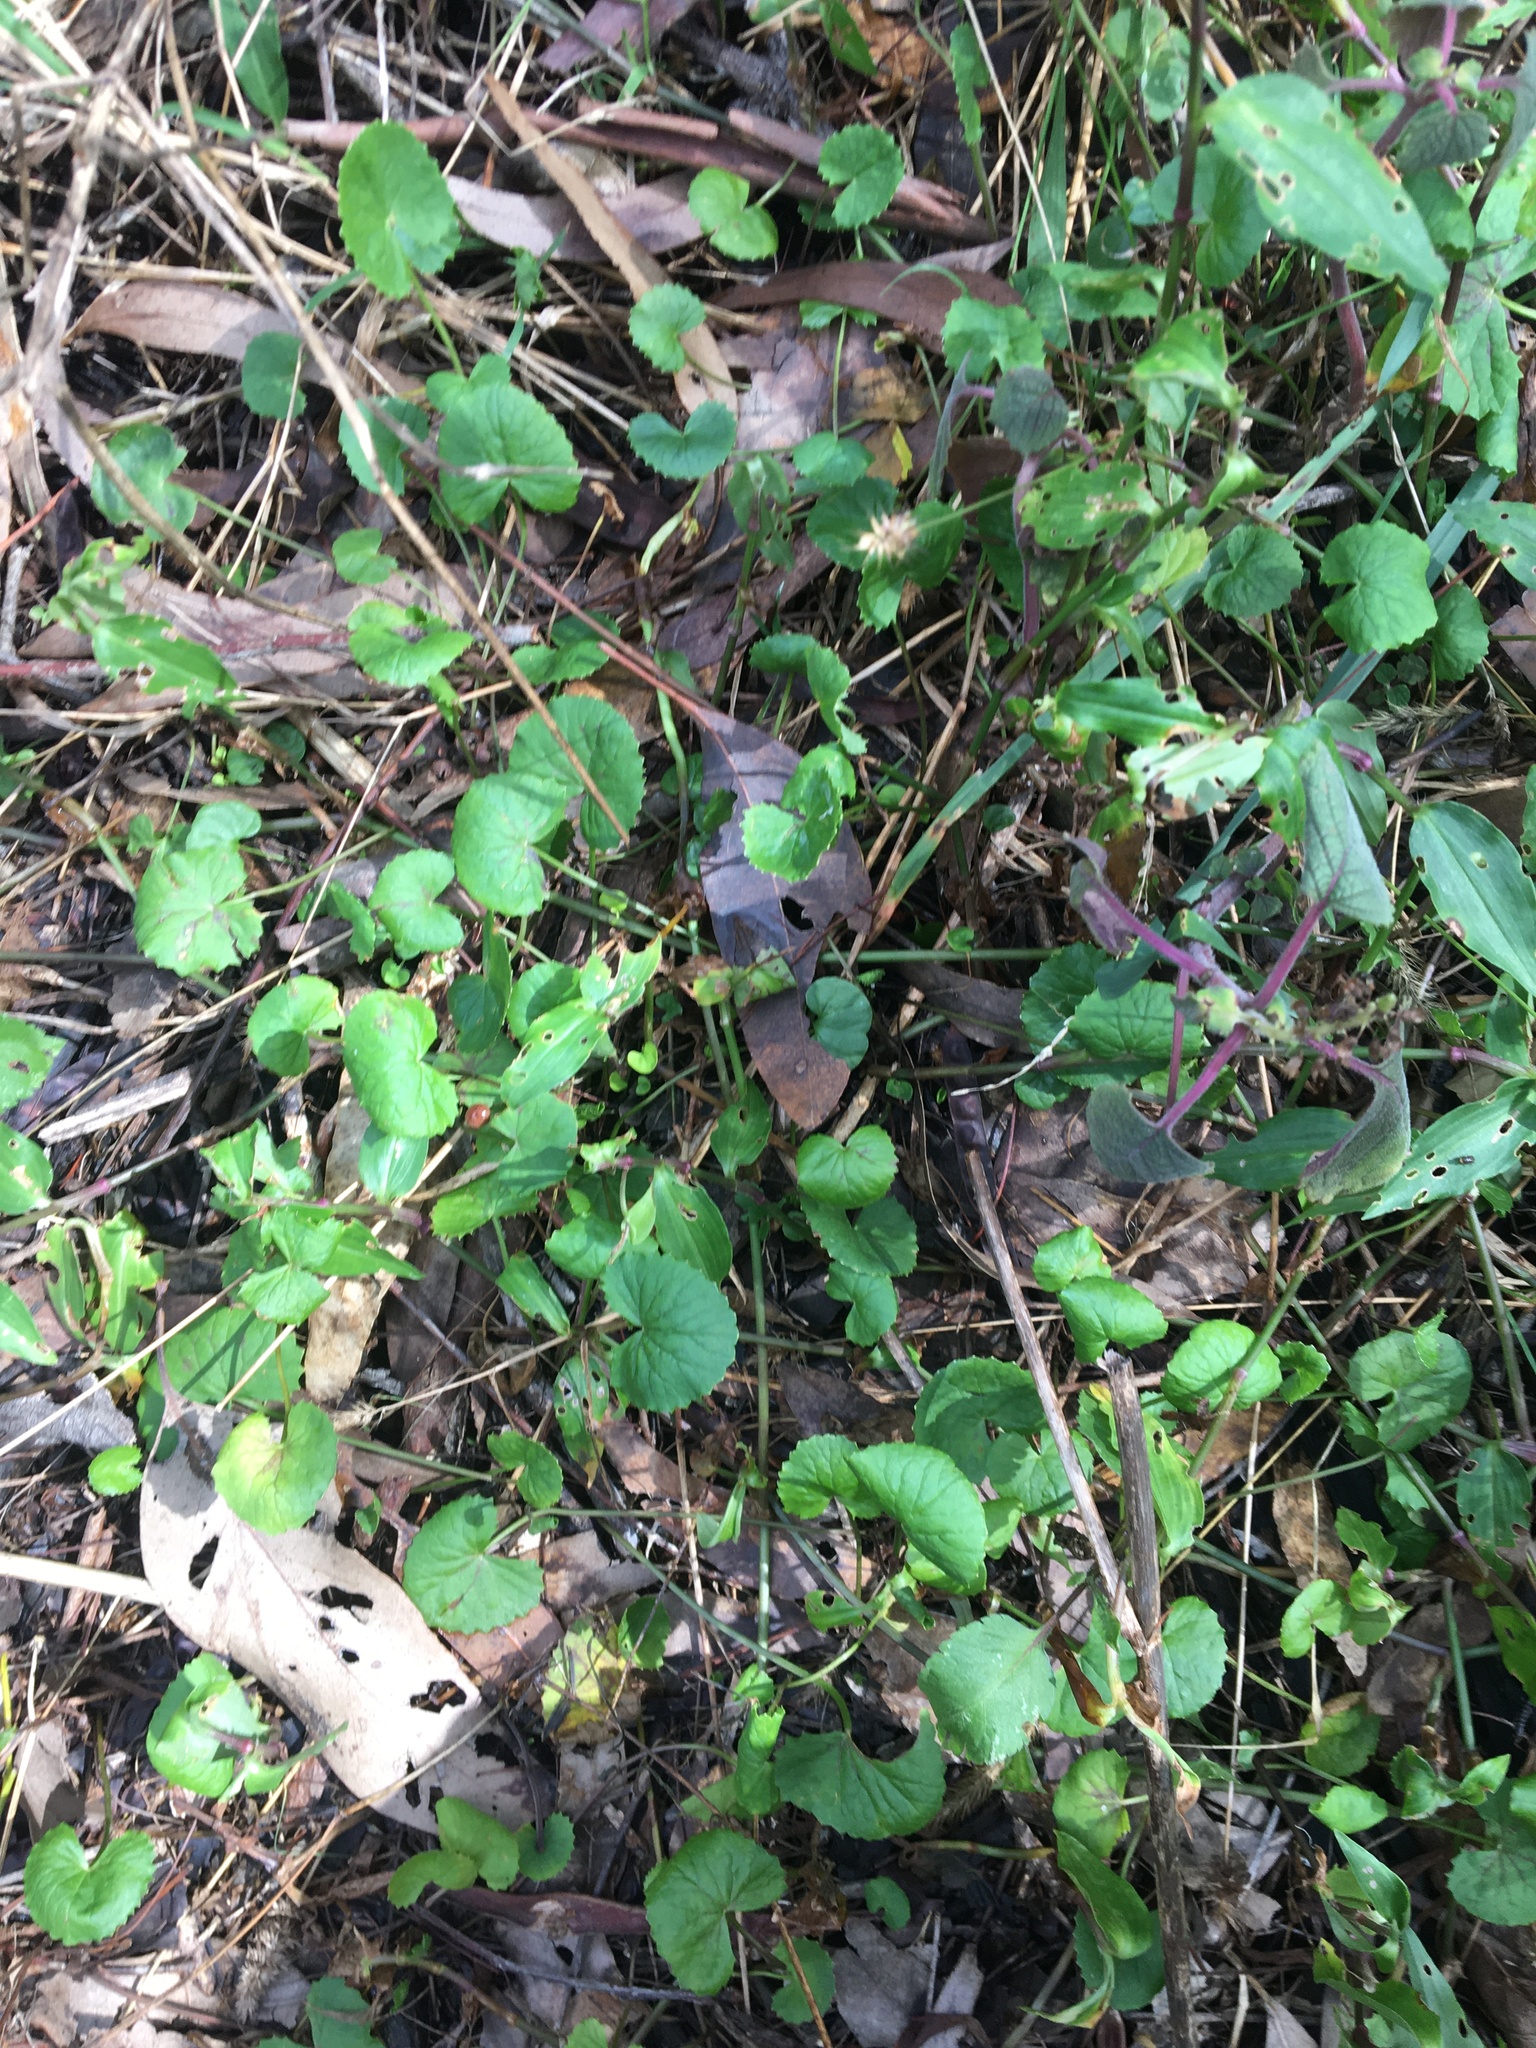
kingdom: Plantae
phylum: Tracheophyta
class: Magnoliopsida
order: Apiales
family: Apiaceae
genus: Centella
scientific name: Centella asiatica
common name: Spadeleaf
